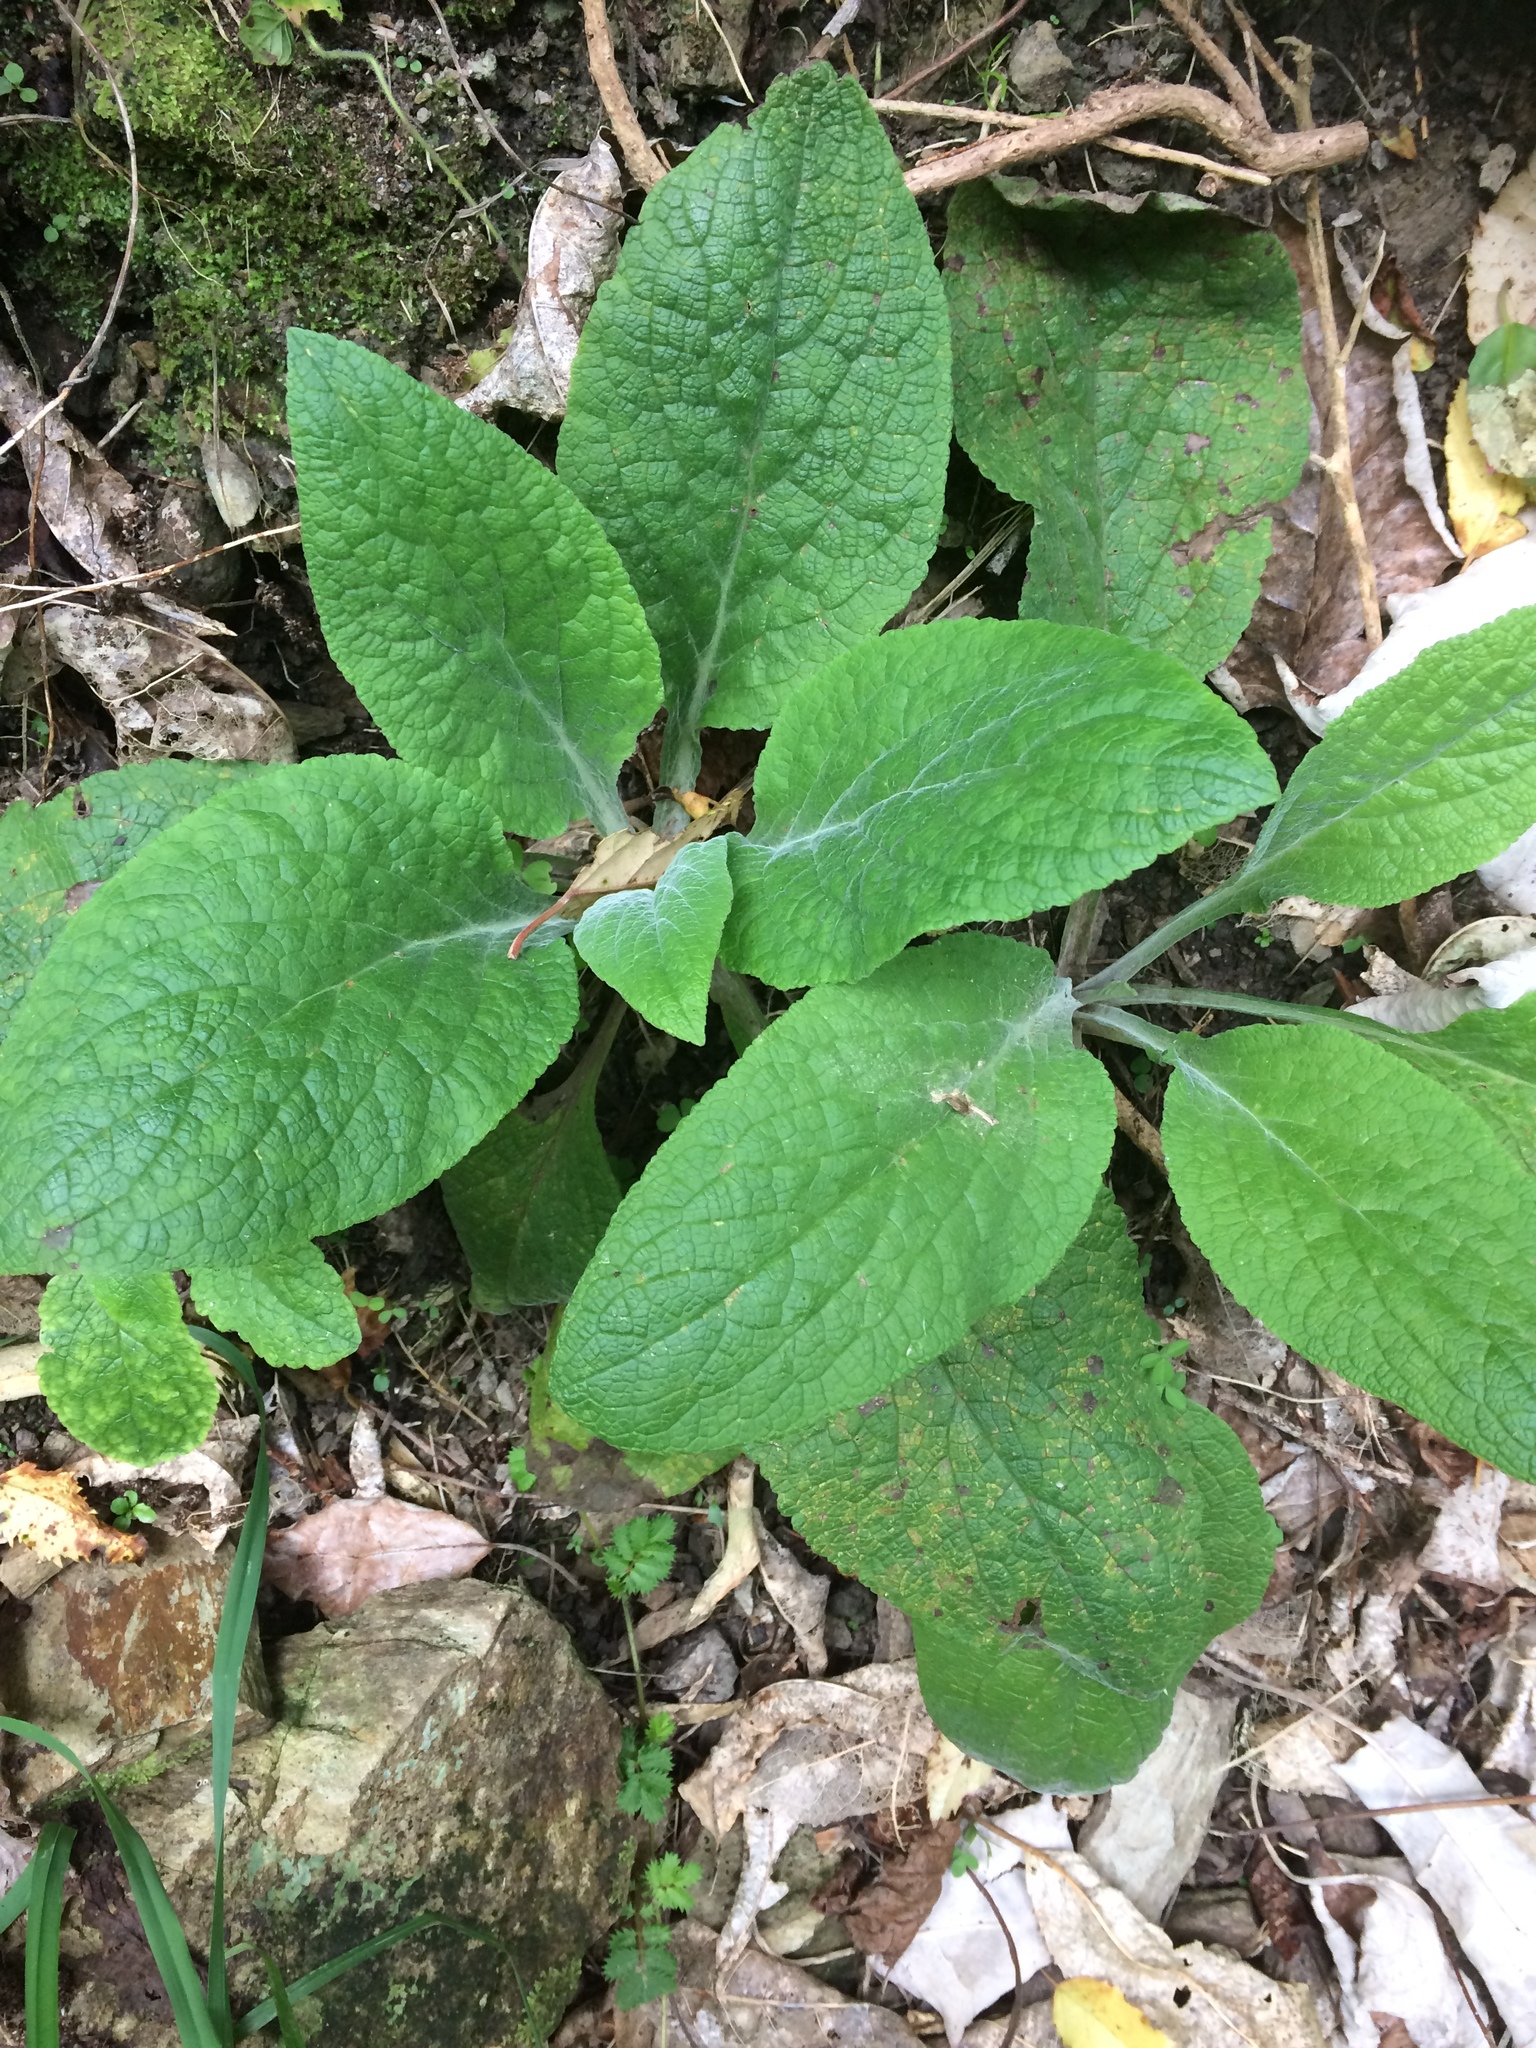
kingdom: Plantae
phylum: Tracheophyta
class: Magnoliopsida
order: Lamiales
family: Plantaginaceae
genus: Digitalis
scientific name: Digitalis purpurea
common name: Foxglove
